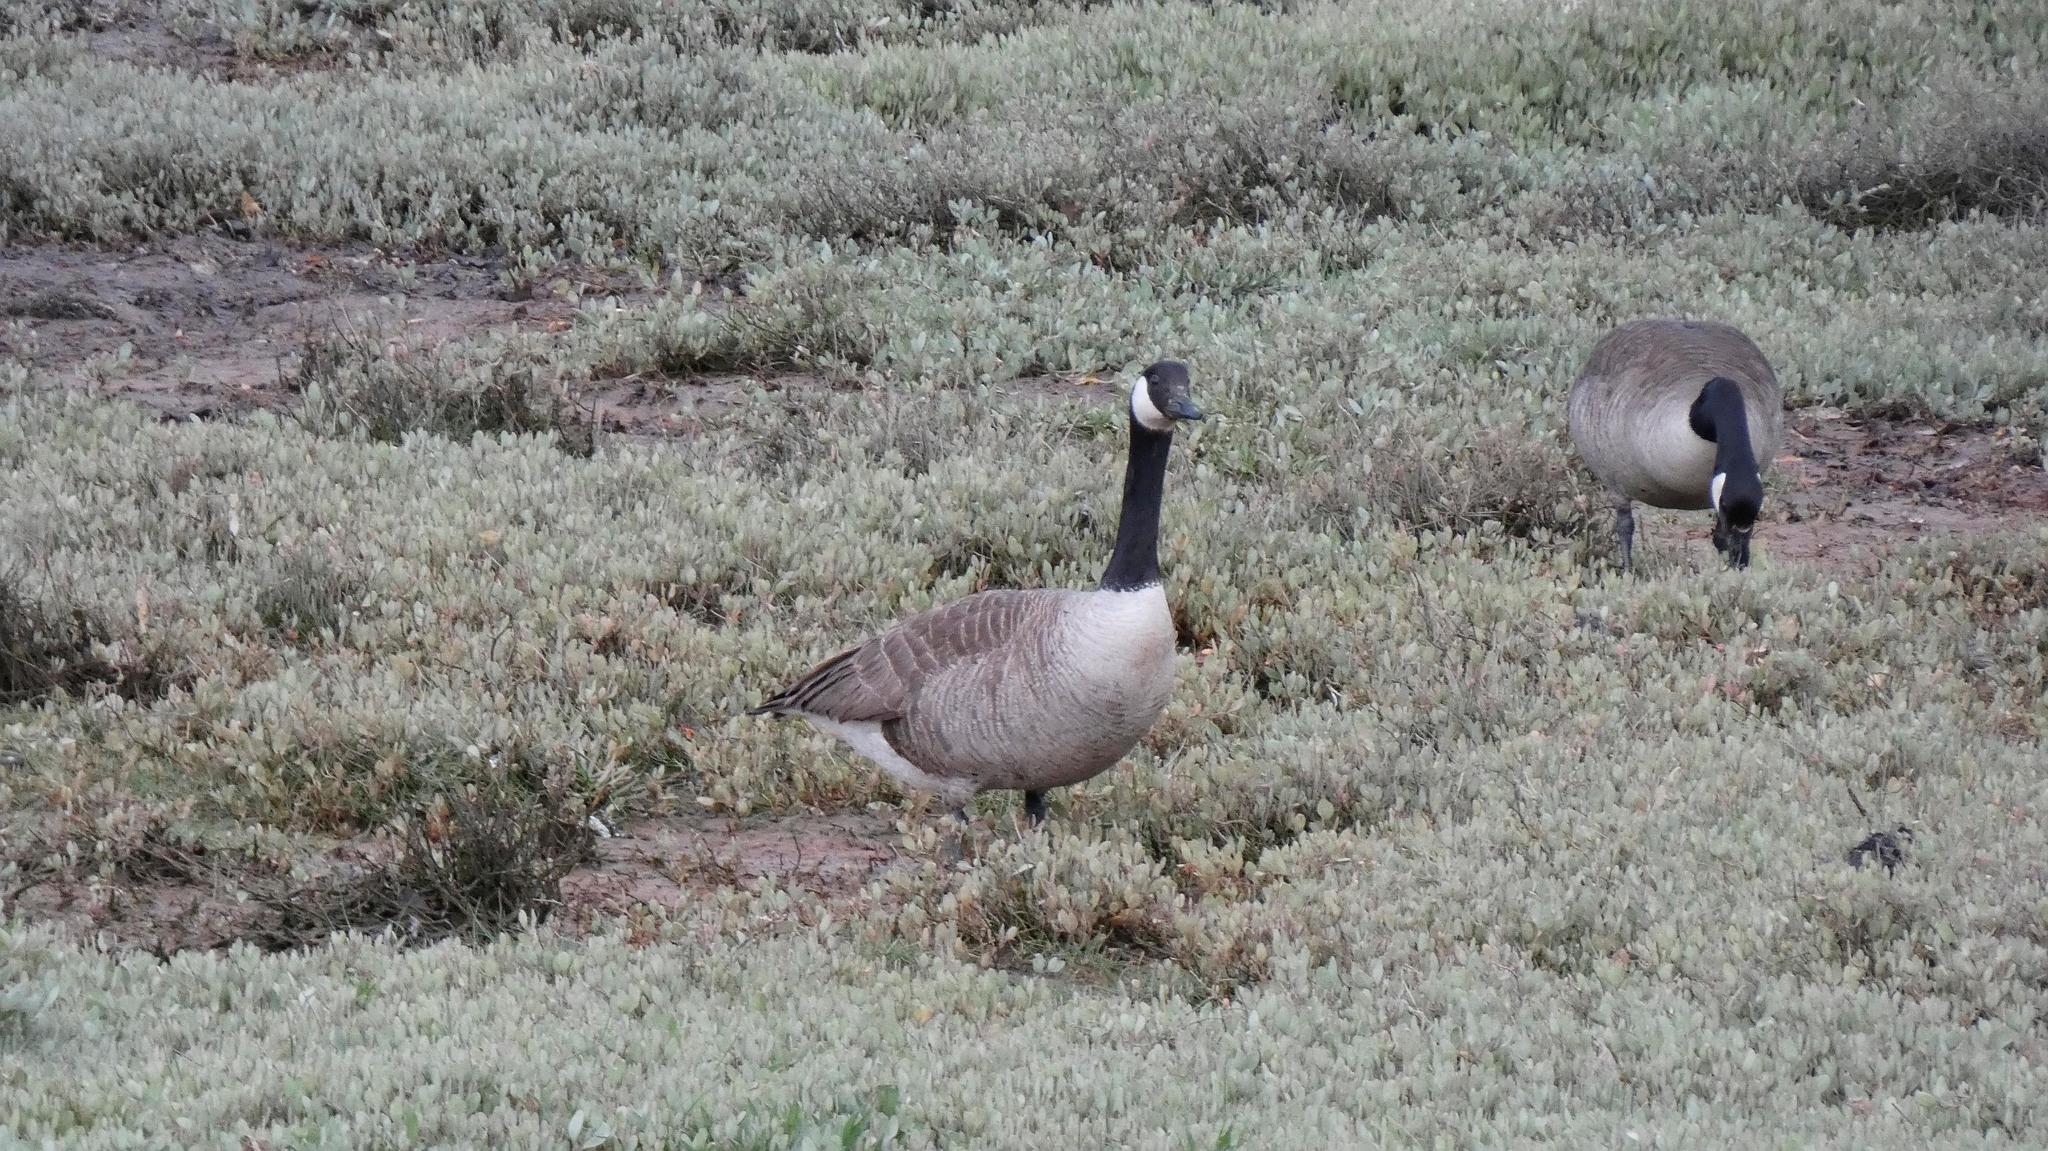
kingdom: Animalia
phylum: Chordata
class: Aves
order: Anseriformes
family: Anatidae
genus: Branta
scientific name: Branta canadensis
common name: Canada goose
